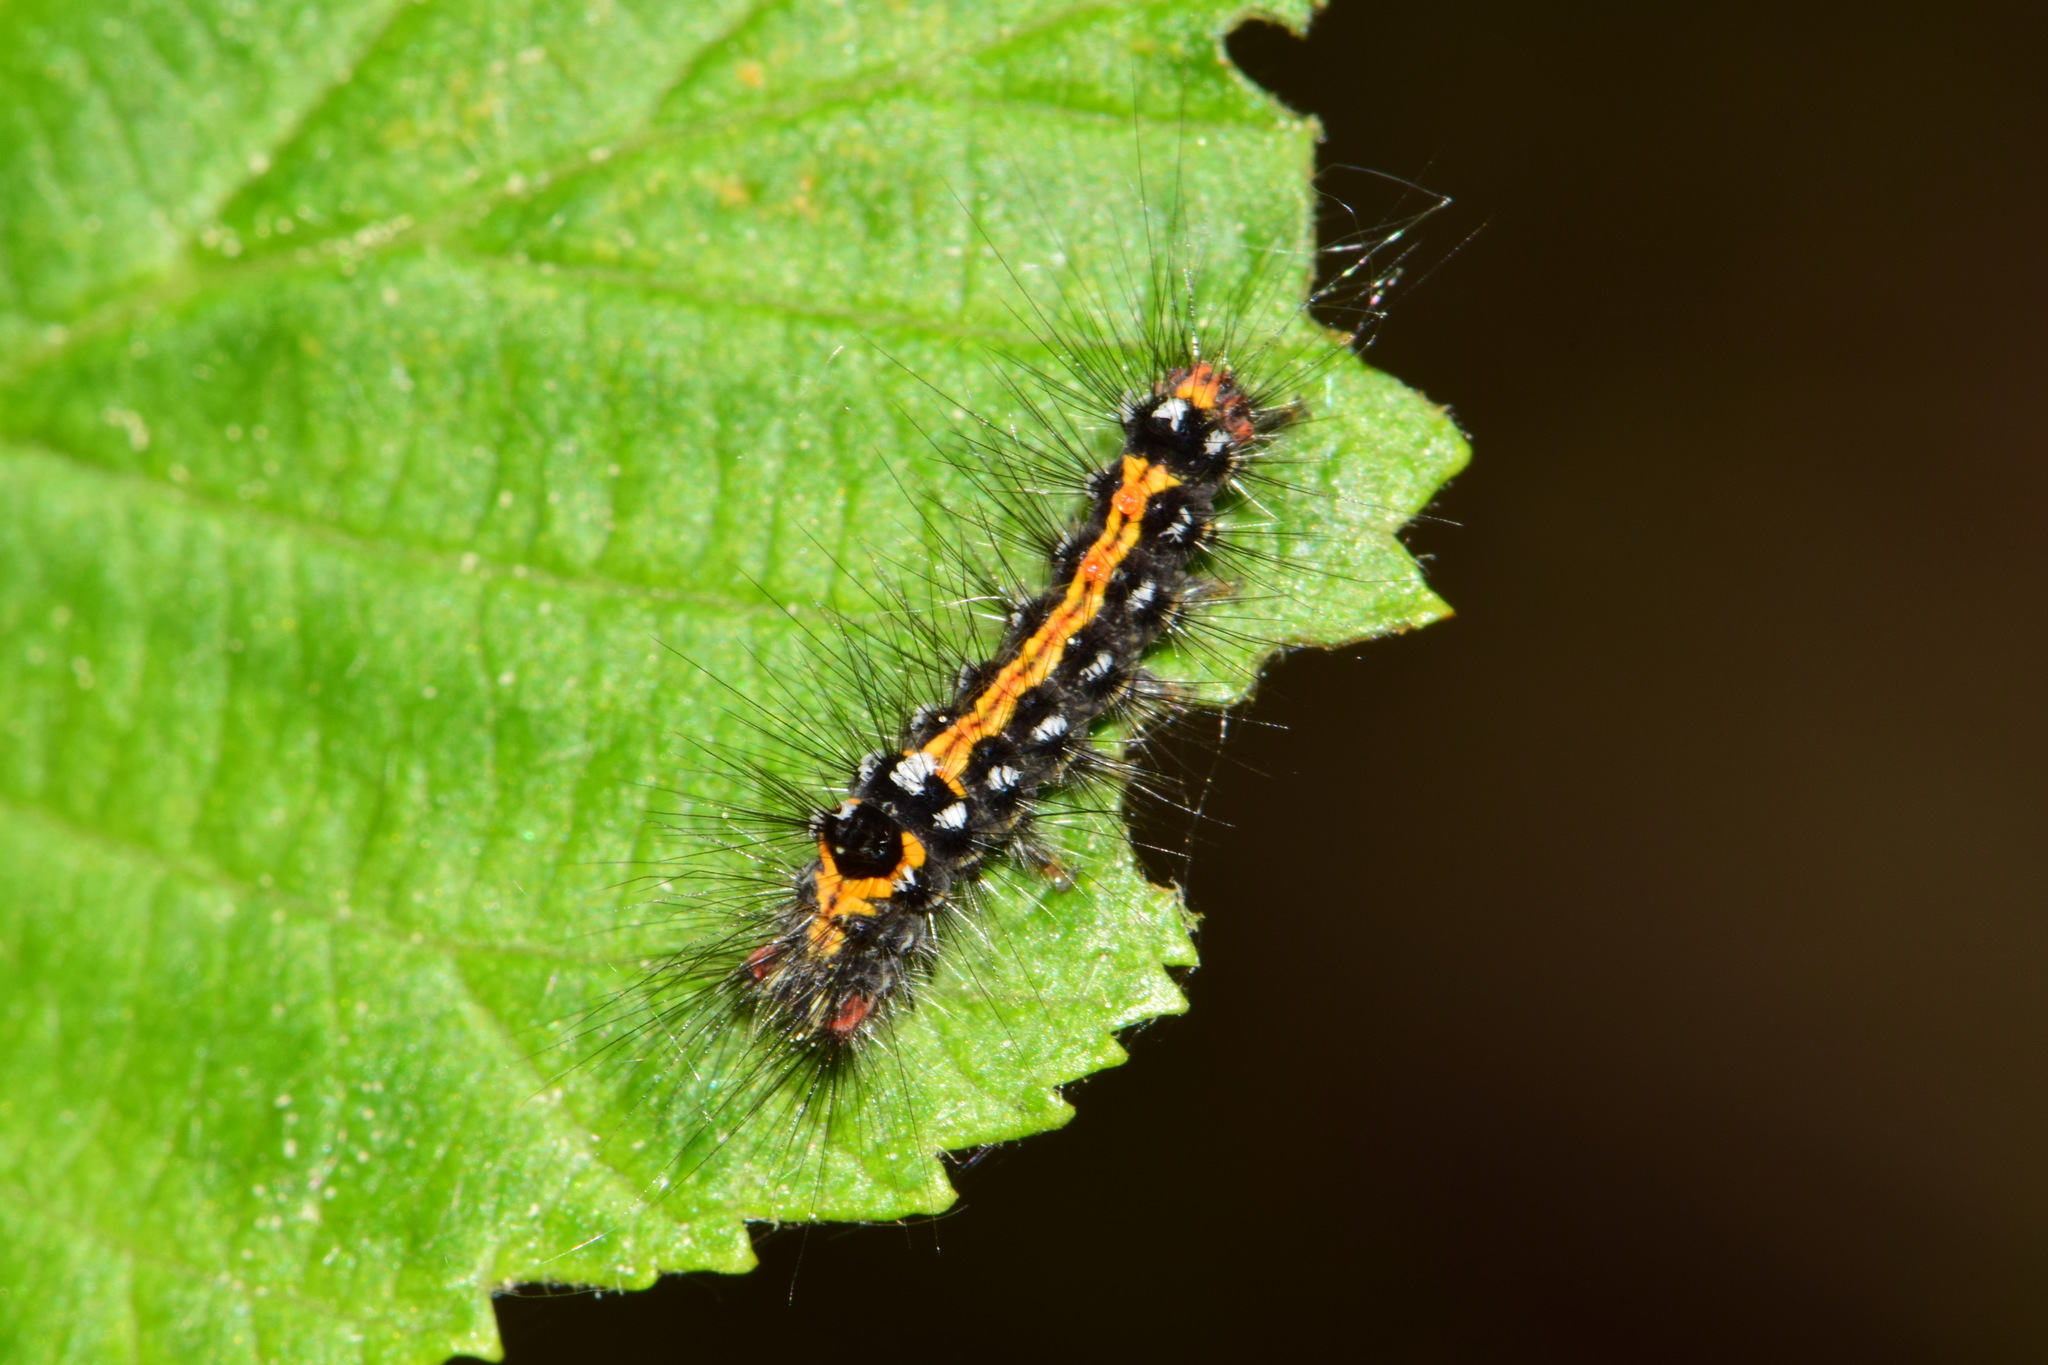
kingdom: Animalia
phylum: Arthropoda
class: Insecta
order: Lepidoptera
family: Erebidae
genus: Sphrageidus
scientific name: Sphrageidus similis
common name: Yellow-tail
